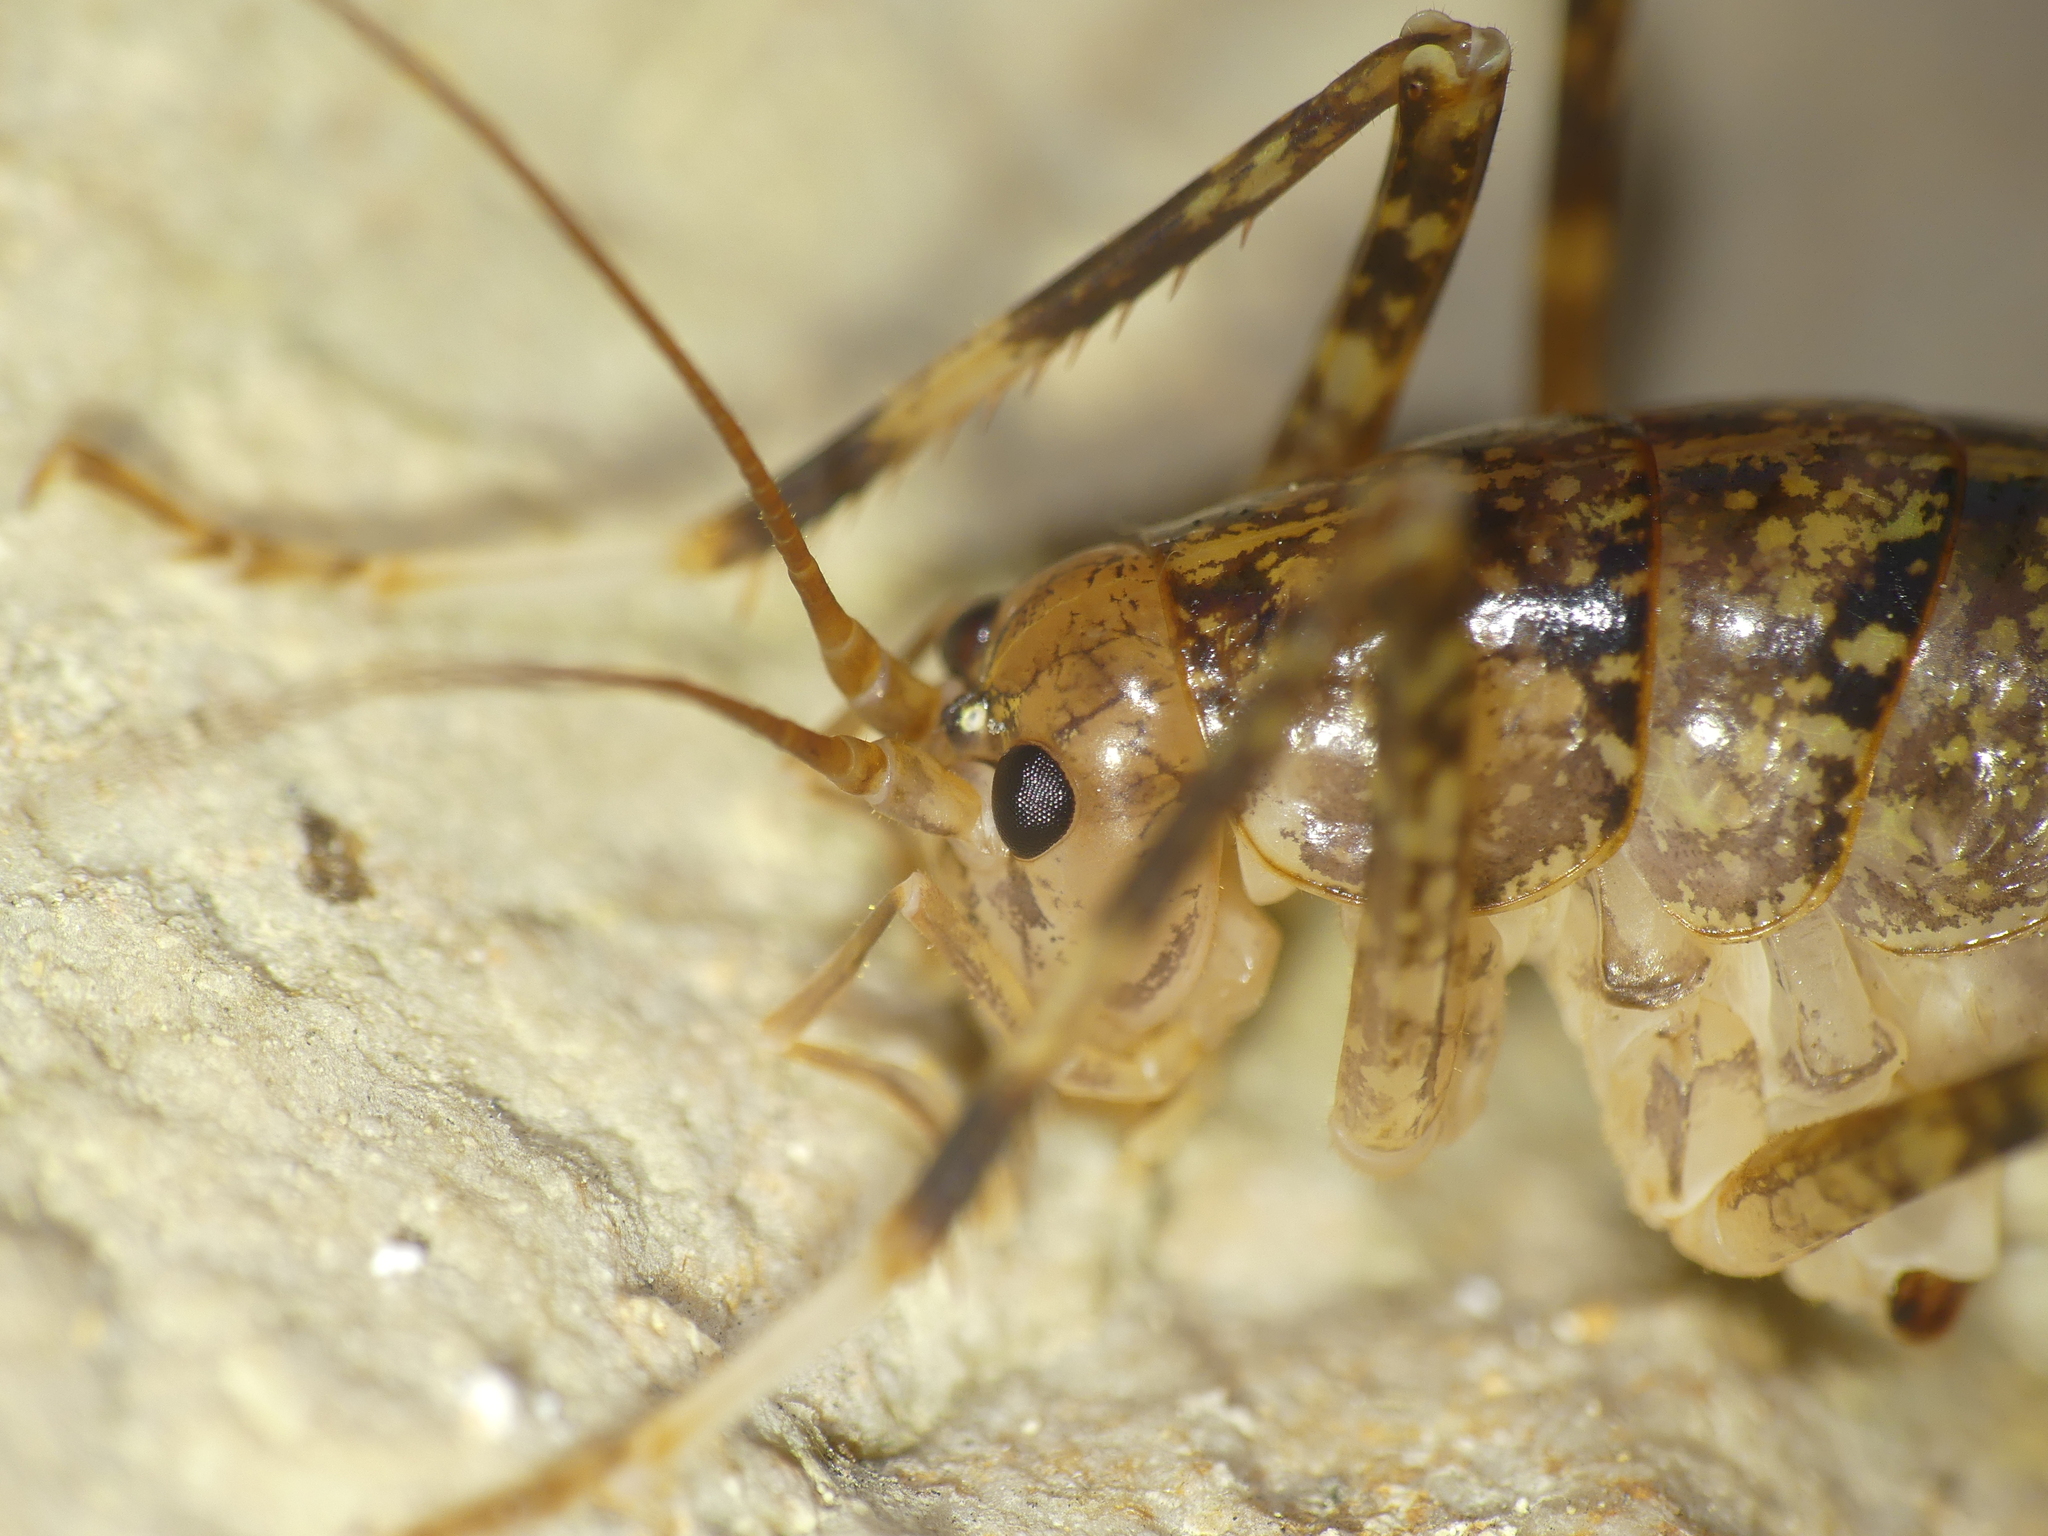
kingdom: Animalia
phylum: Arthropoda
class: Insecta
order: Orthoptera
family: Rhaphidophoridae
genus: Troglophilus
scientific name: Troglophilus neglectus
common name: Neglected cave-cricket
